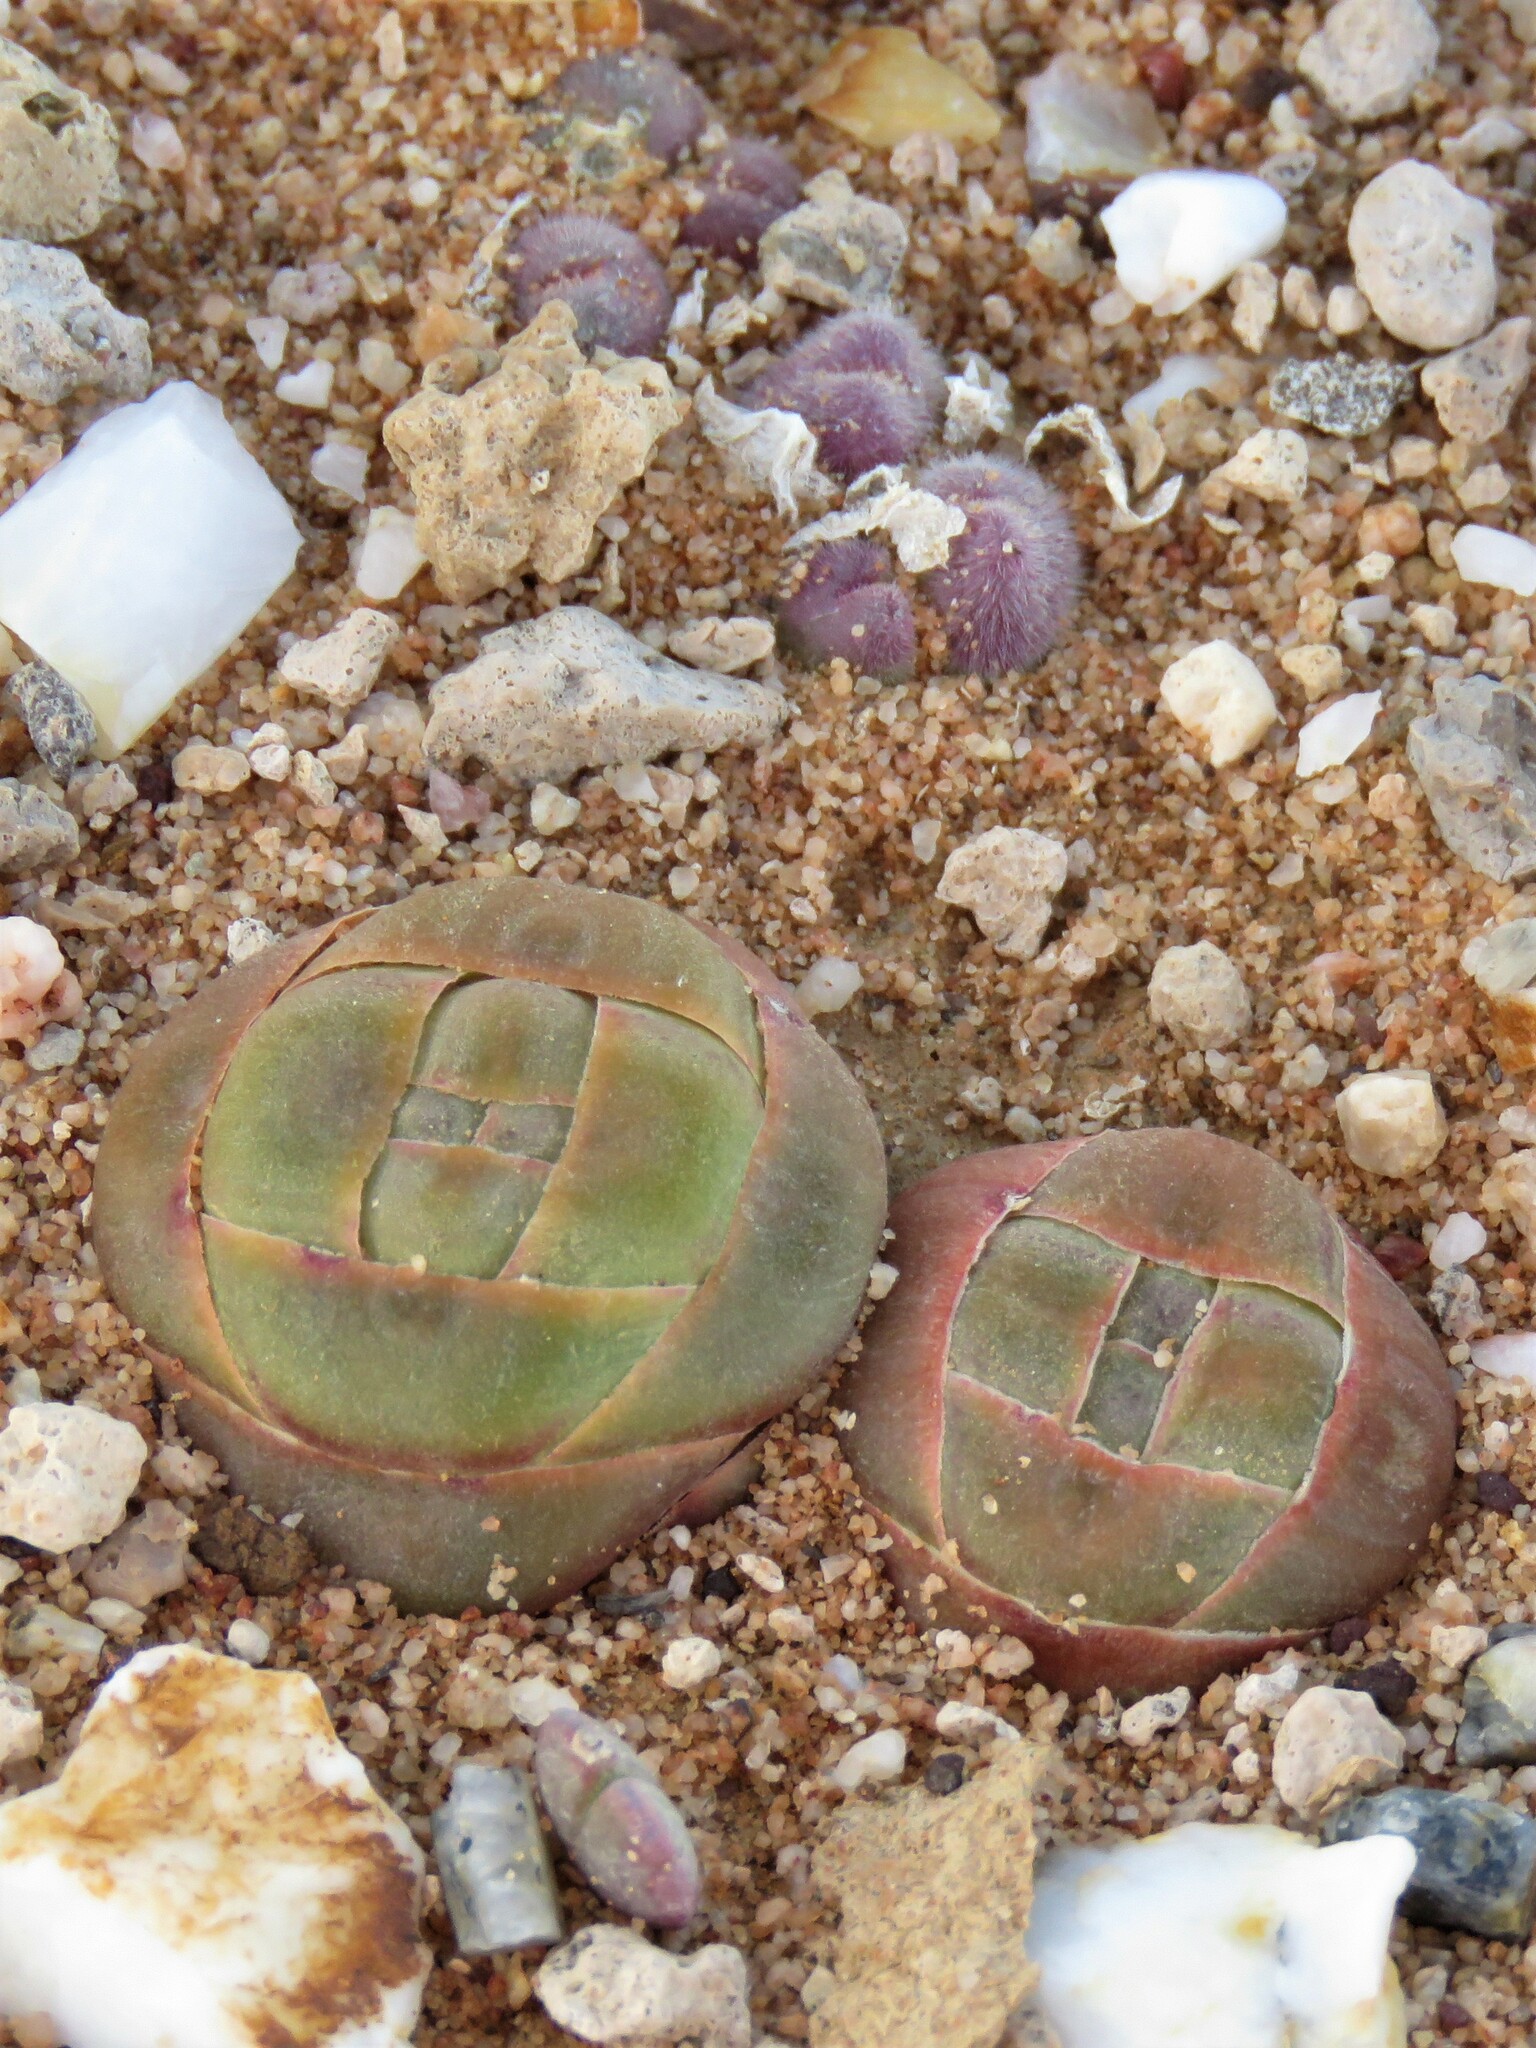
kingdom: Plantae
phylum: Tracheophyta
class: Magnoliopsida
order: Saxifragales
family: Crassulaceae
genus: Crassula
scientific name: Crassula columnaris
